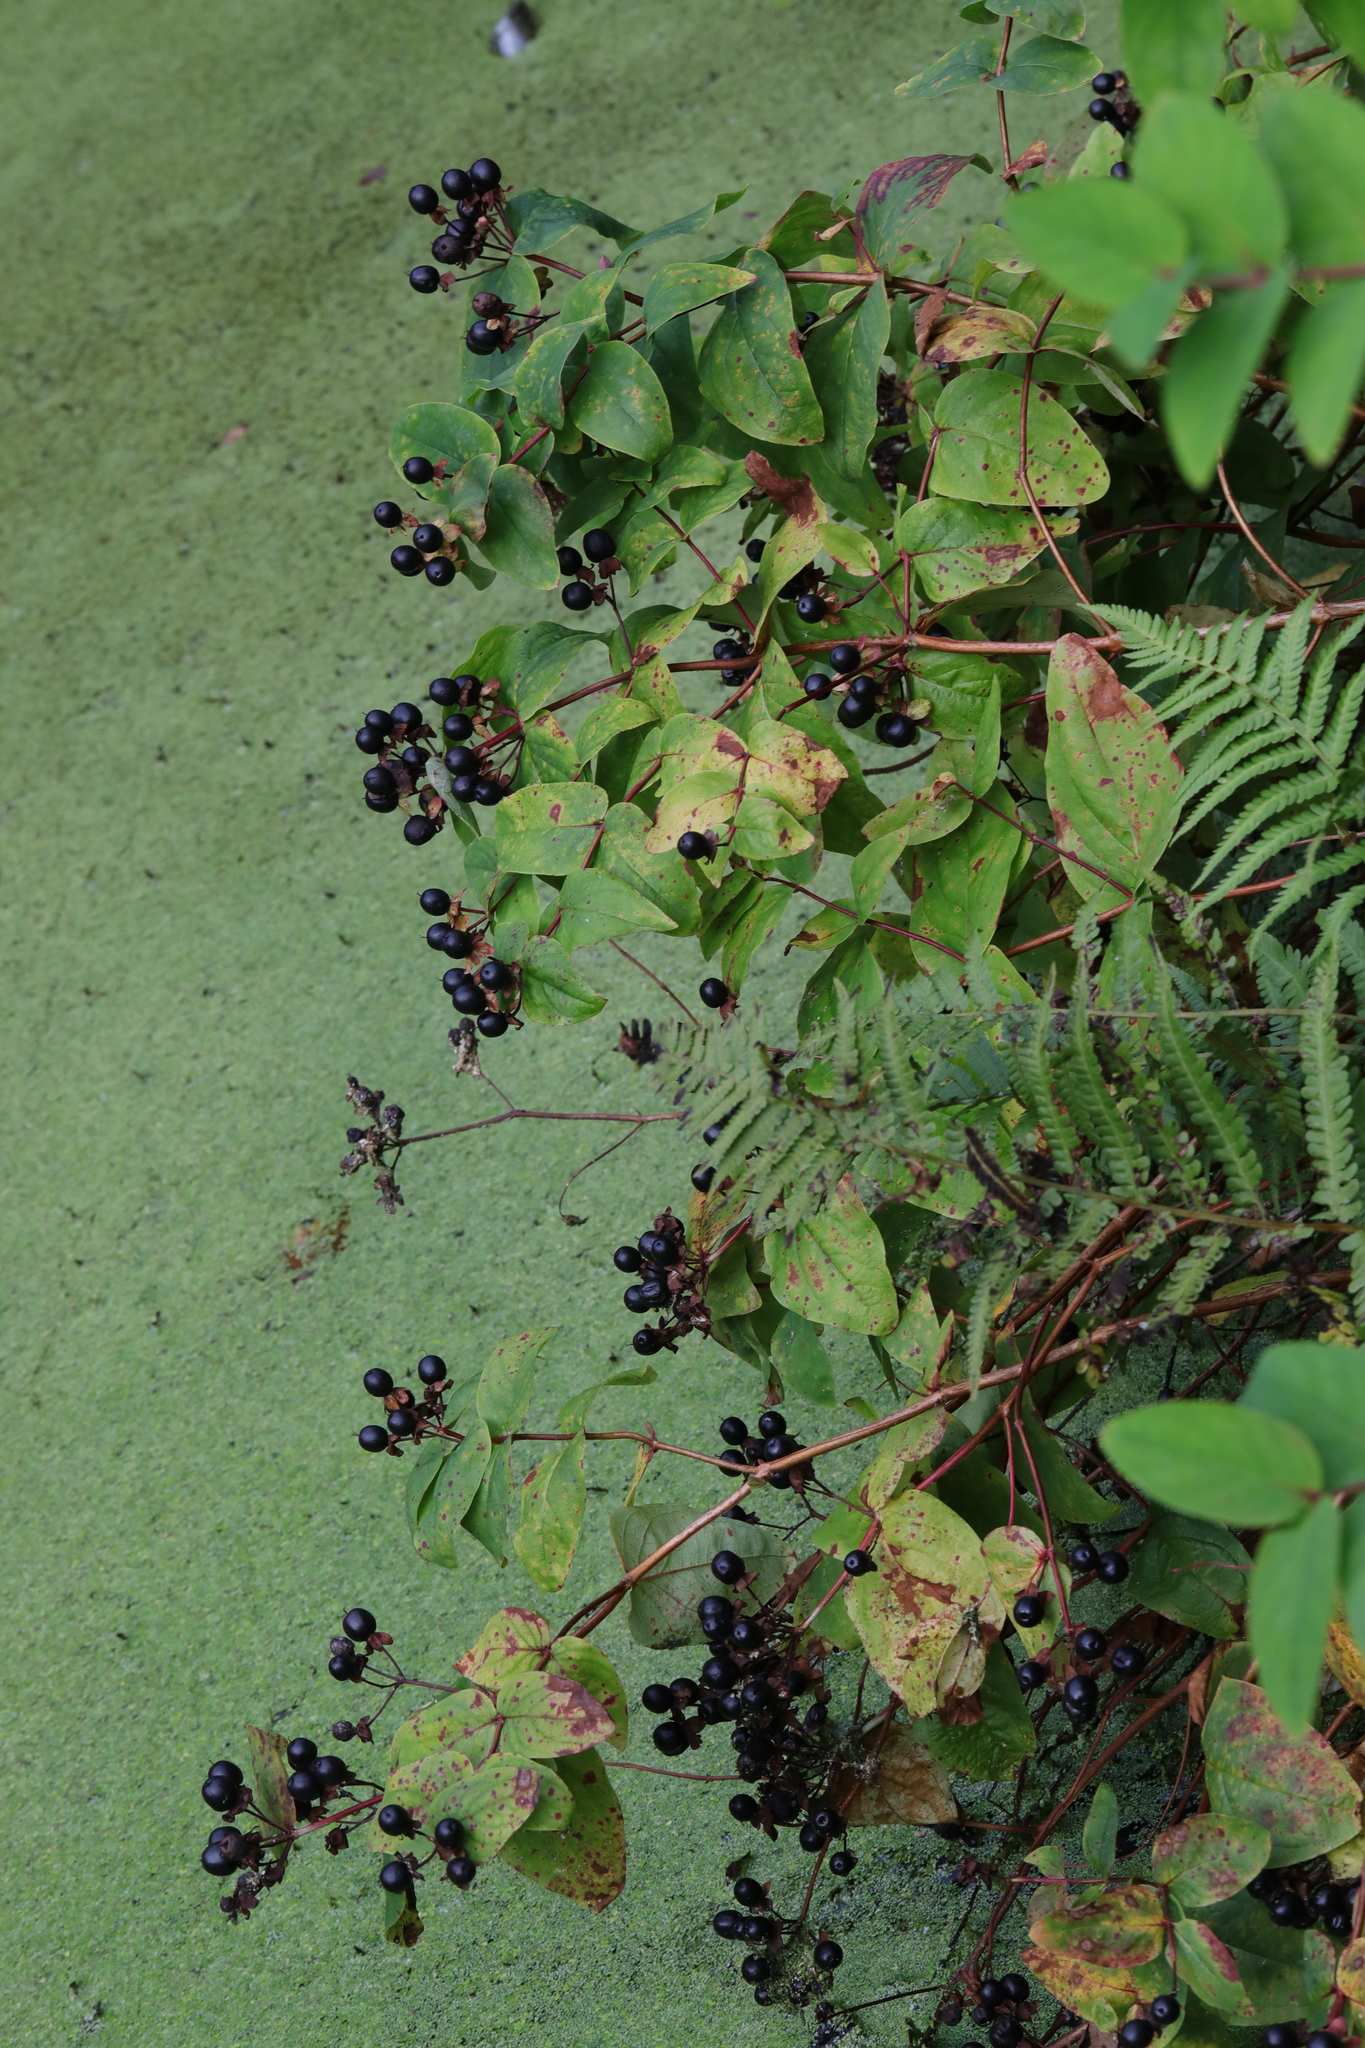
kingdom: Plantae
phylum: Tracheophyta
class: Magnoliopsida
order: Malpighiales
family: Hypericaceae
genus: Hypericum
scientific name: Hypericum androsaemum
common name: Sweet-amber
